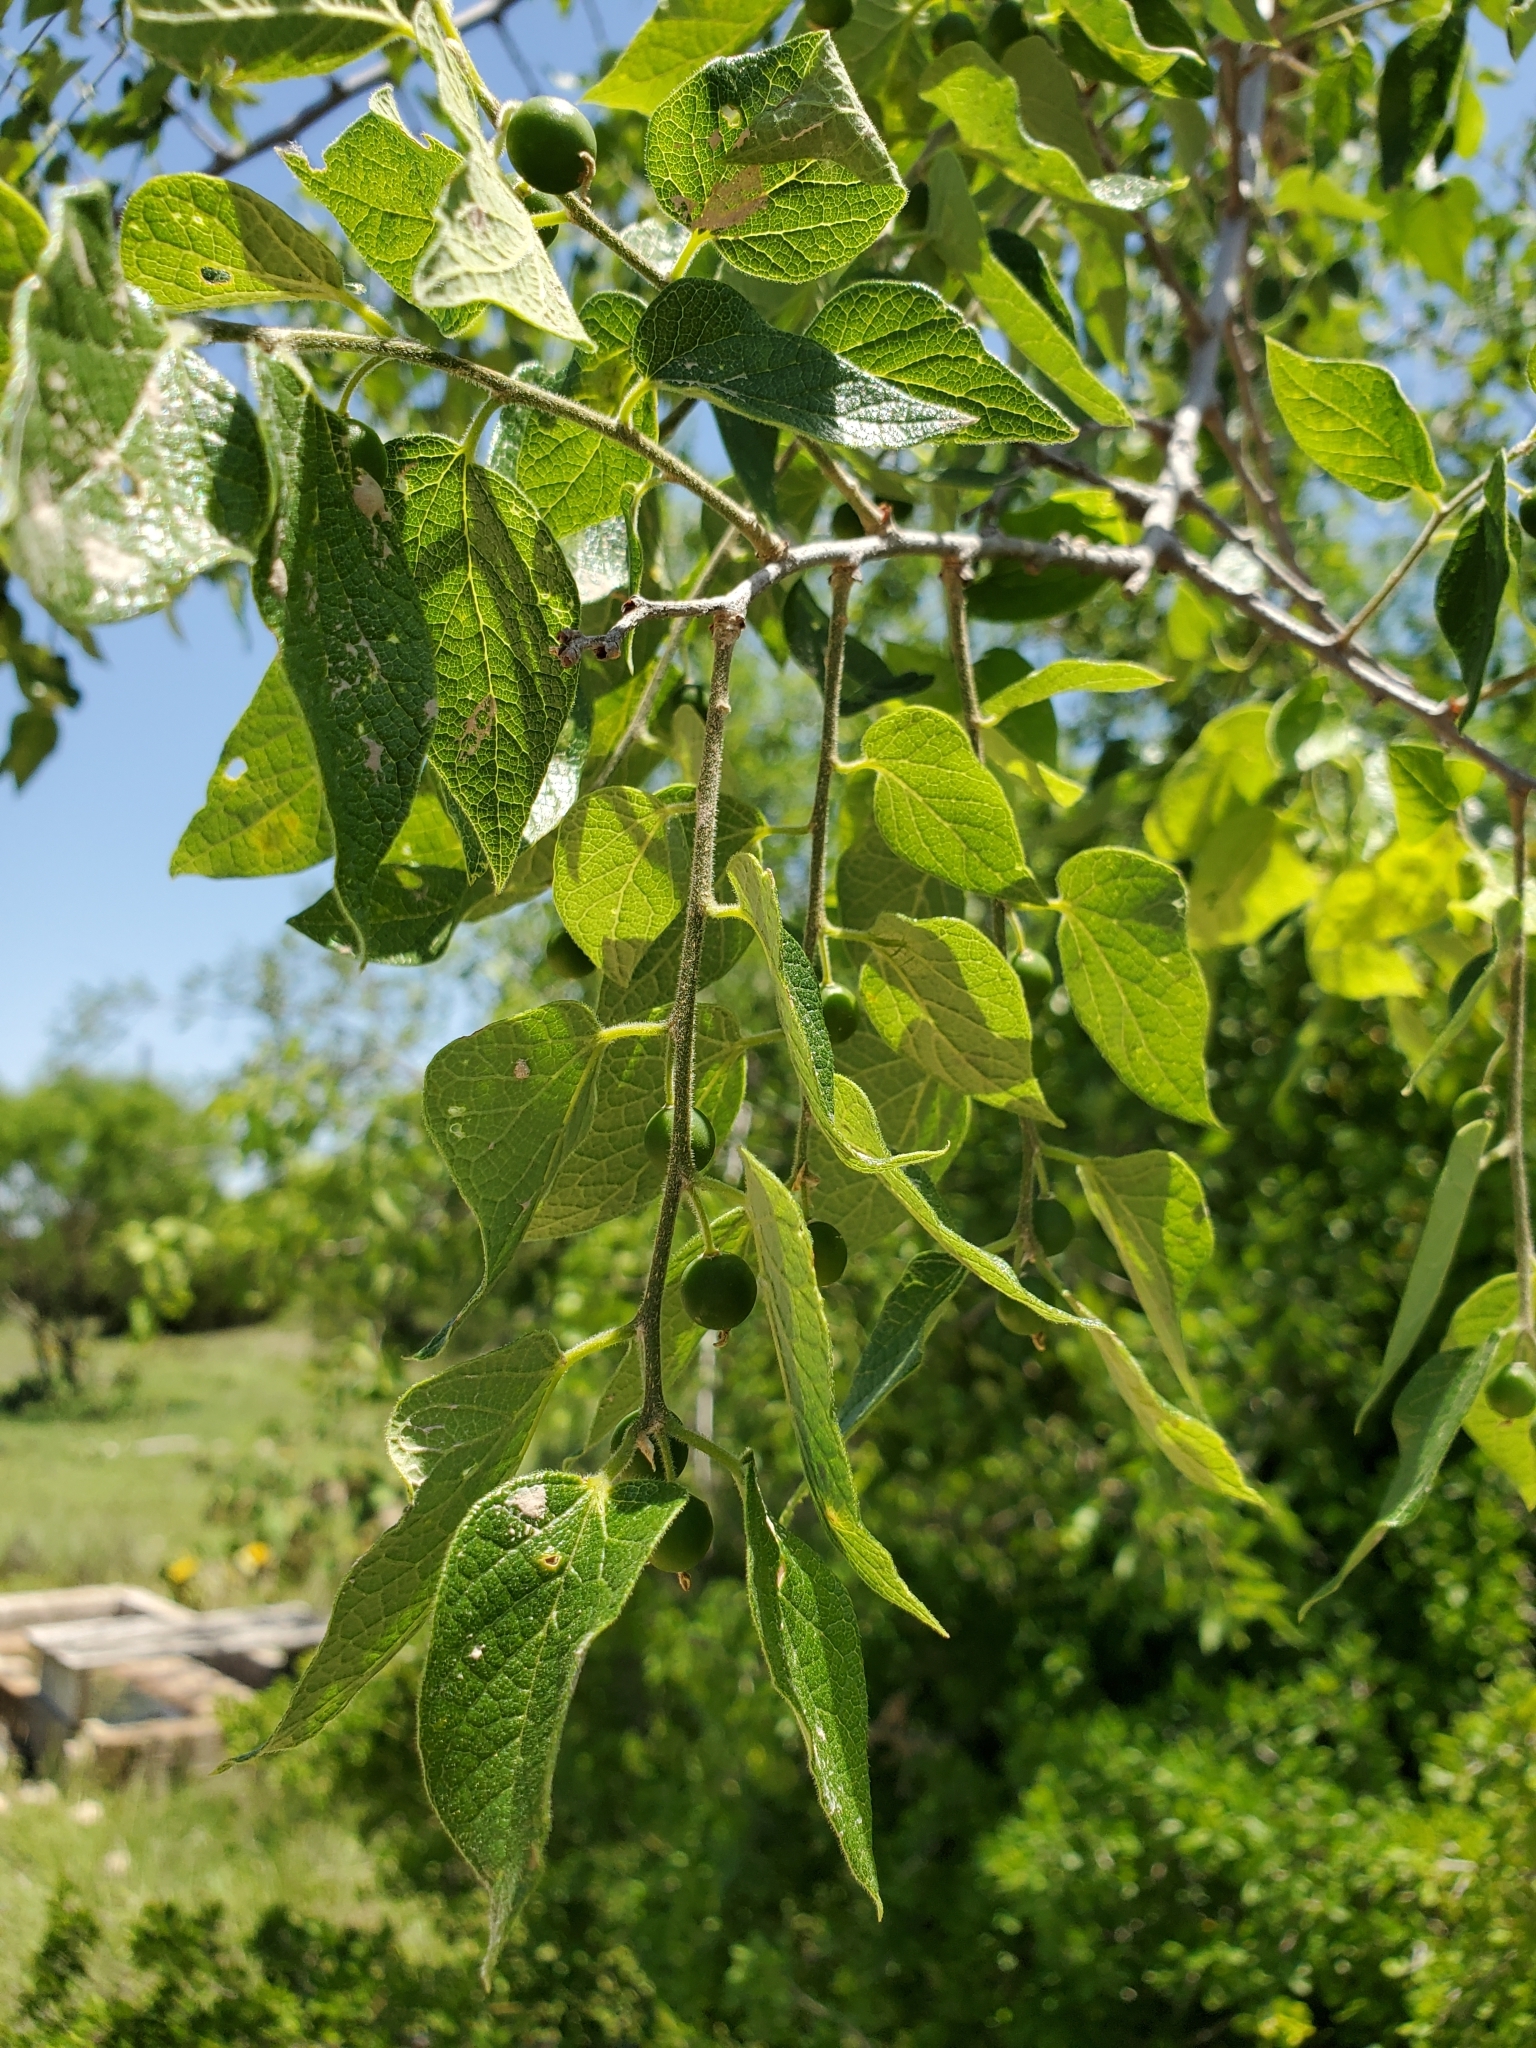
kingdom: Plantae
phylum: Tracheophyta
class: Magnoliopsida
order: Rosales
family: Cannabaceae
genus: Celtis
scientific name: Celtis reticulata
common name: Netleaf hackberry
